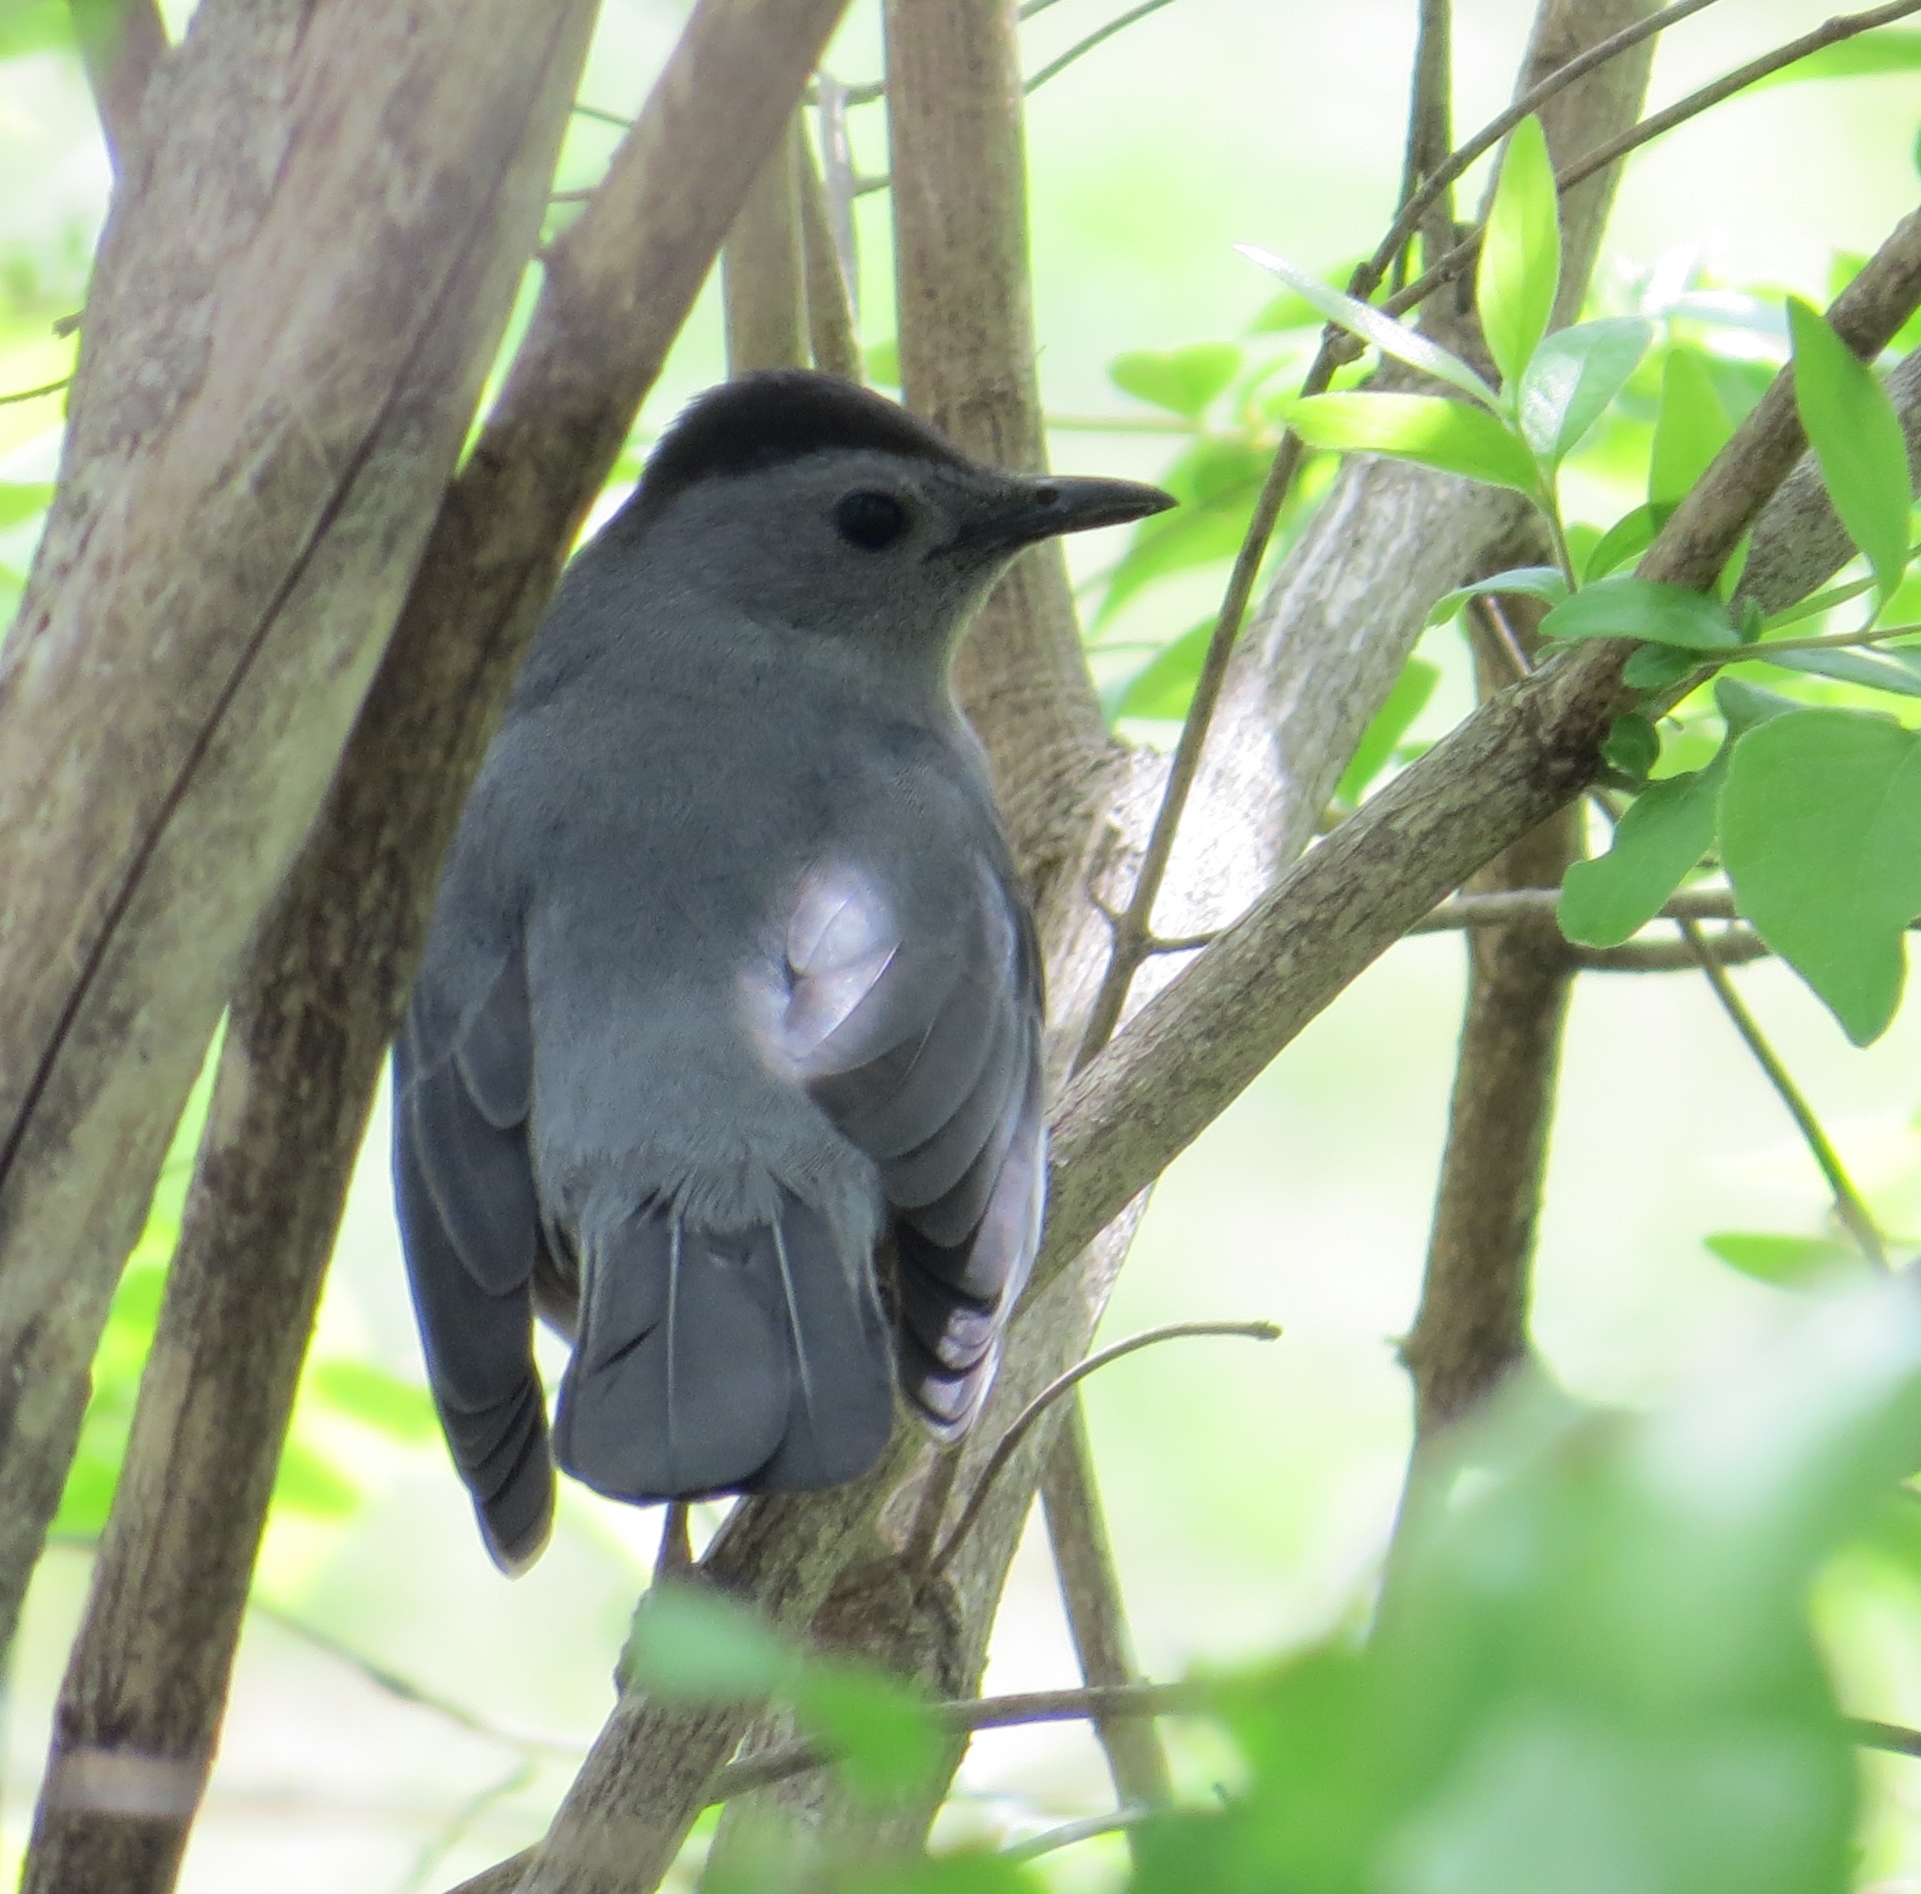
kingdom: Animalia
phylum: Chordata
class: Aves
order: Passeriformes
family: Mimidae
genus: Dumetella
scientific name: Dumetella carolinensis
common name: Gray catbird
